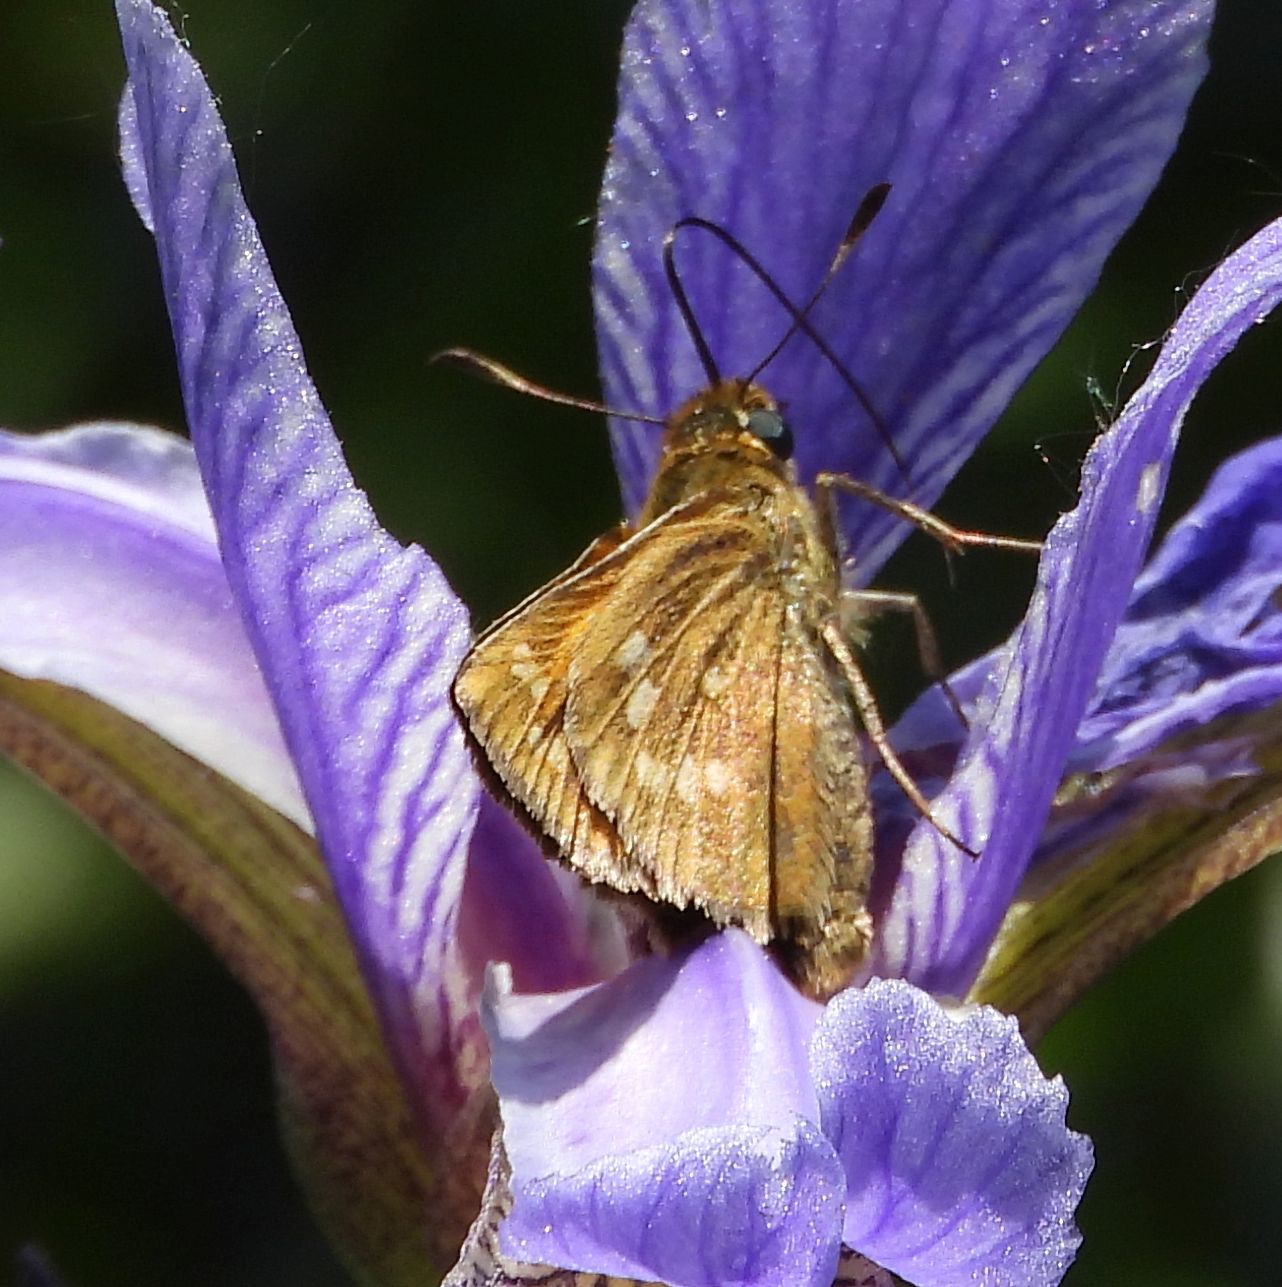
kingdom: Animalia
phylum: Arthropoda
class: Insecta
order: Lepidoptera
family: Hesperiidae
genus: Hesperia
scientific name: Hesperia sassacus
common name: Indian skipper
